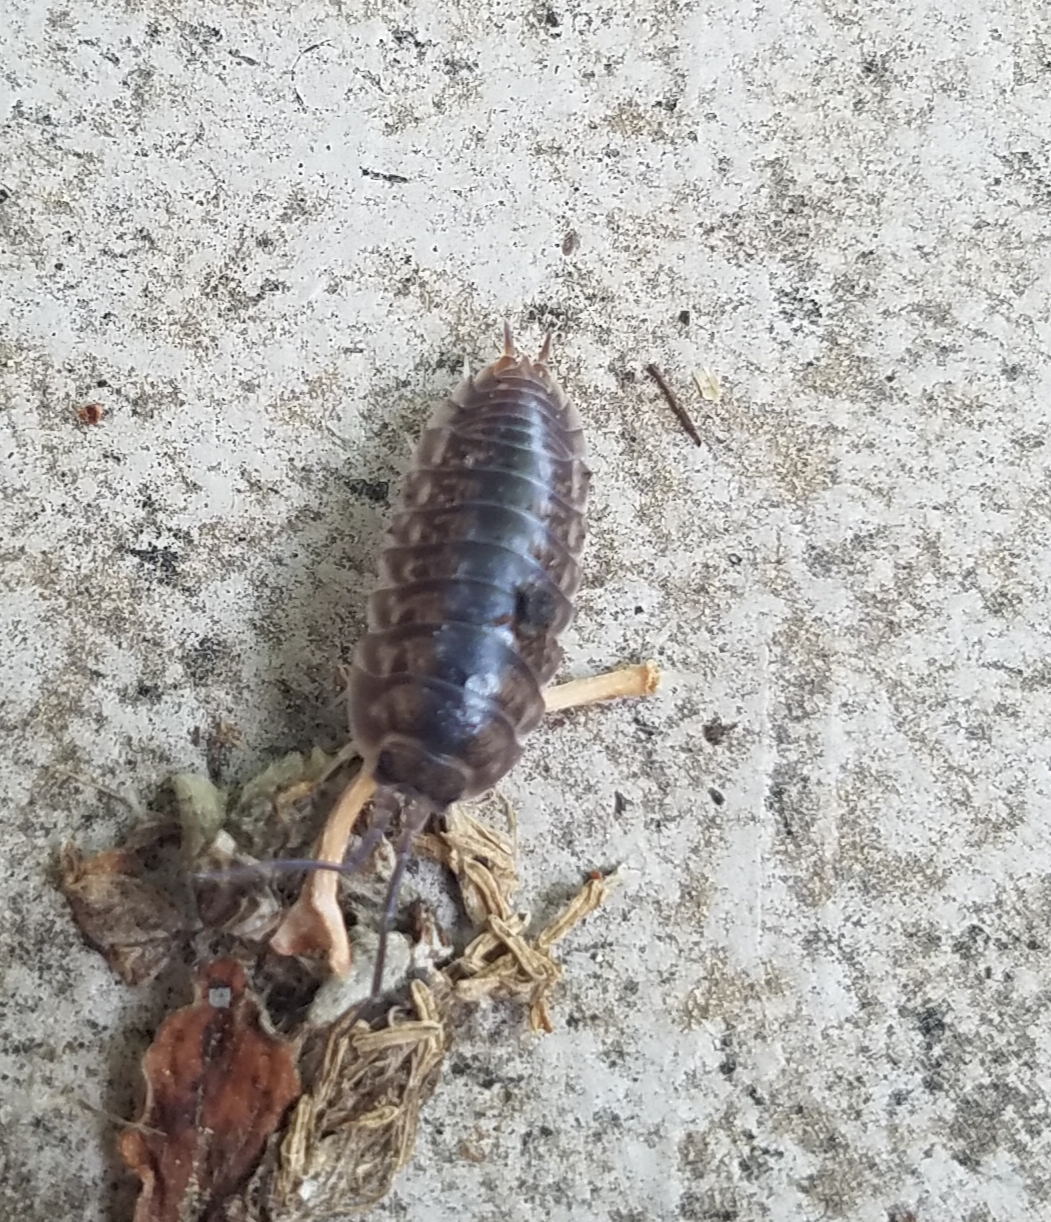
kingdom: Animalia
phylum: Arthropoda
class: Malacostraca
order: Isopoda
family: Cylisticidae
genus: Cylisticus
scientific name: Cylisticus convexus
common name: Curly woodlouse
